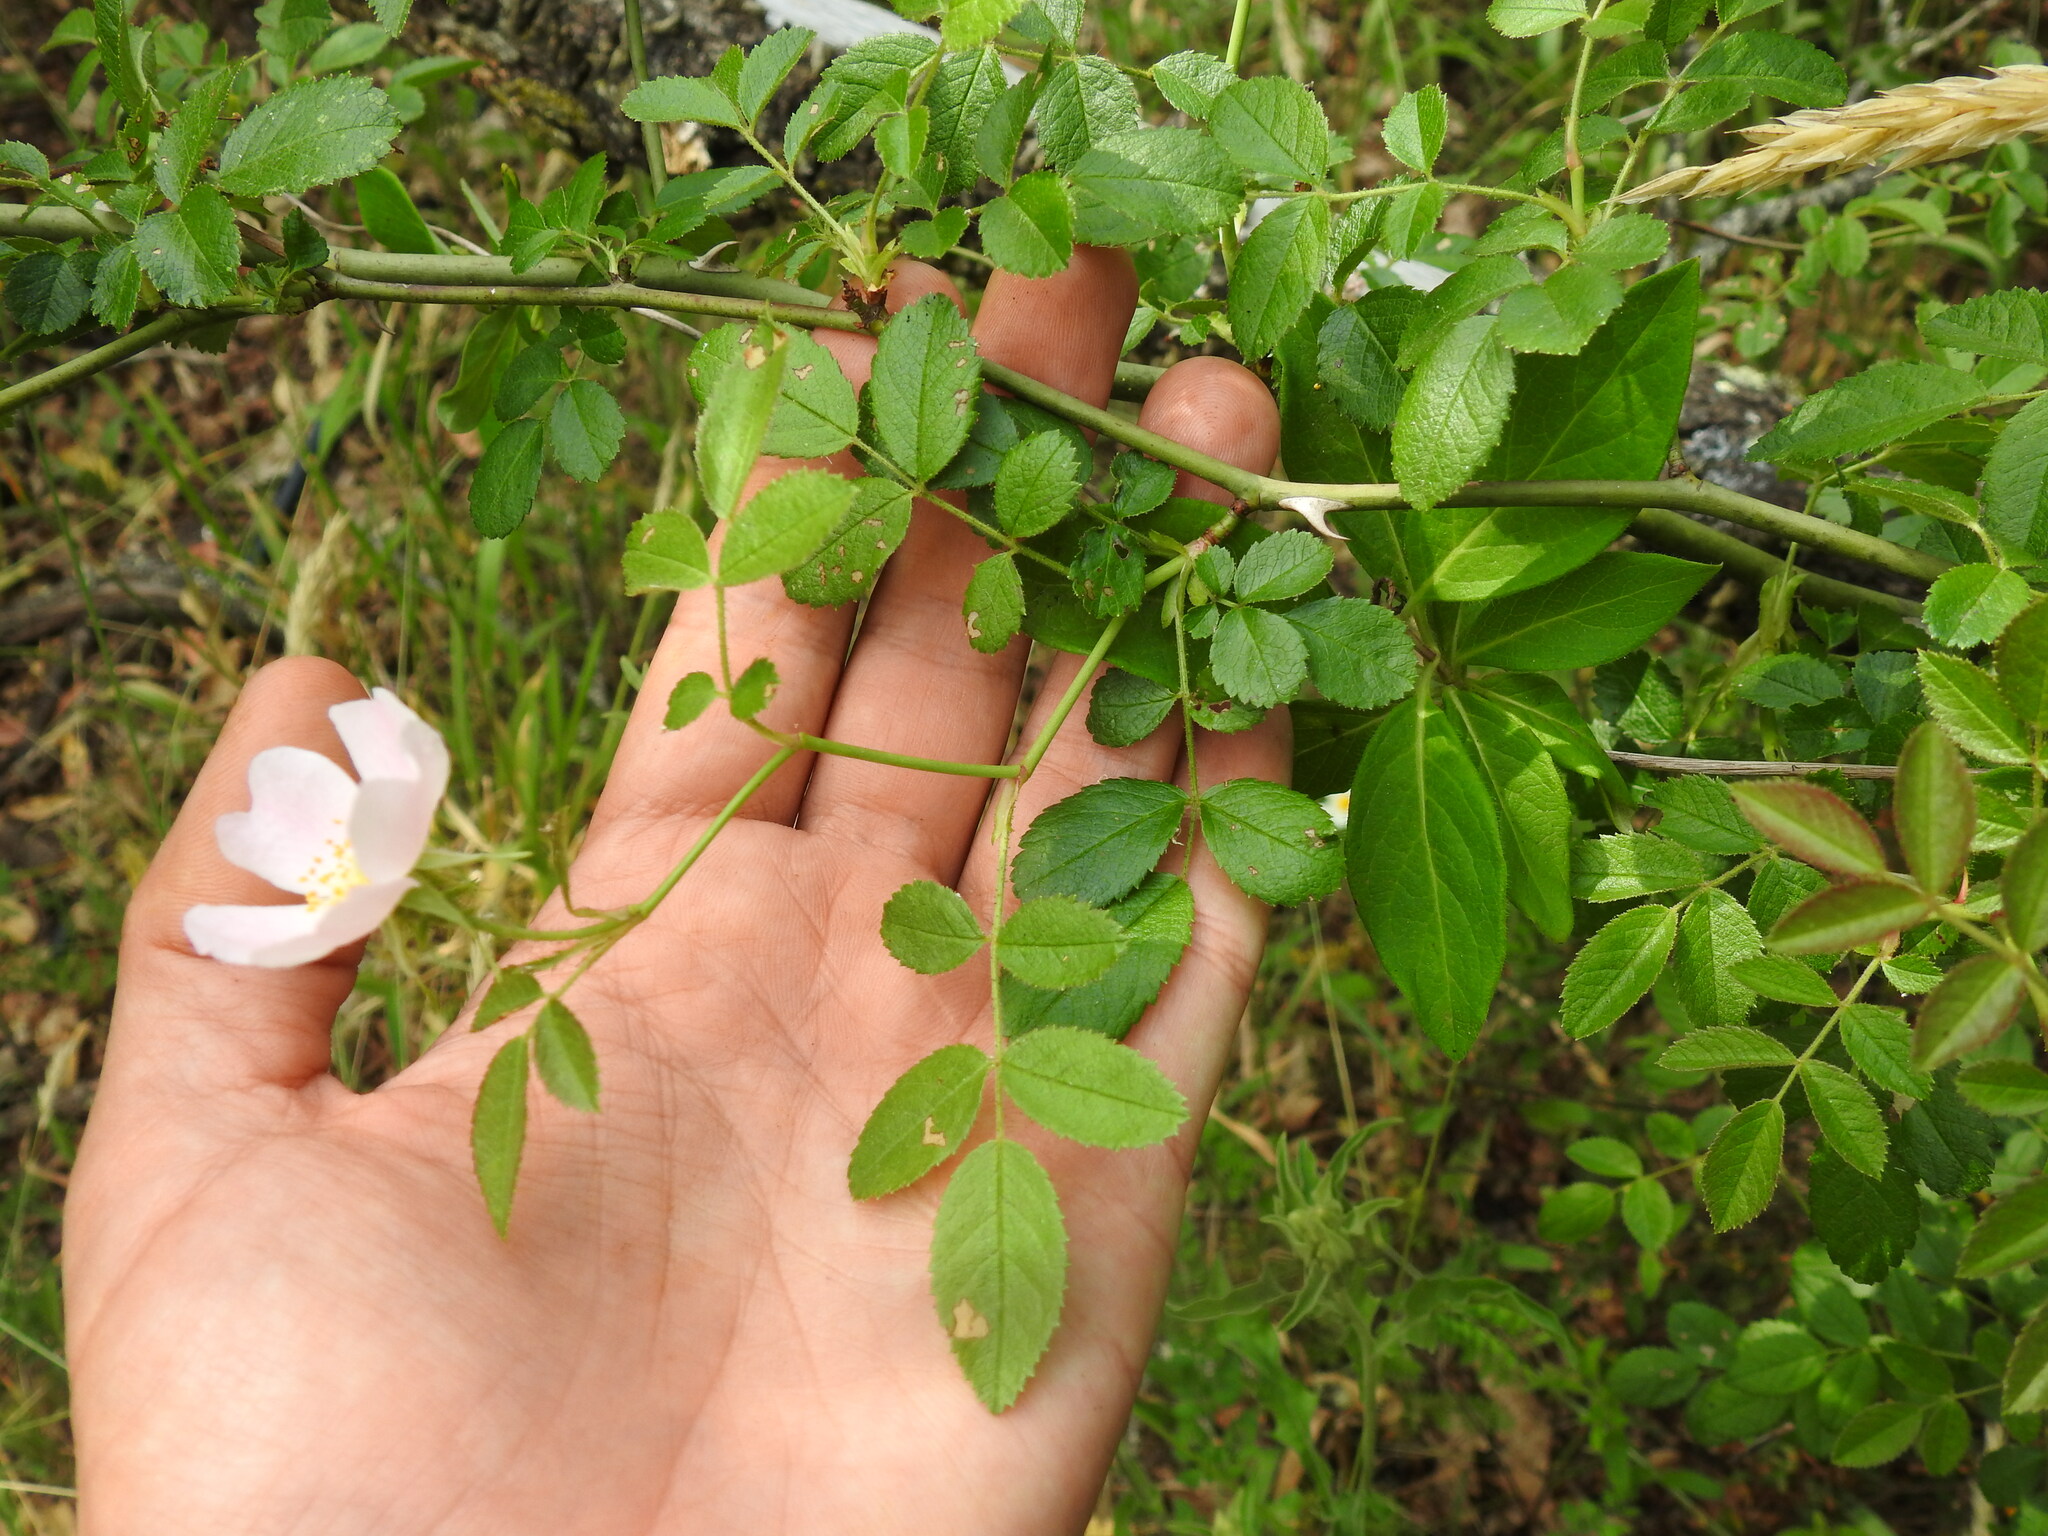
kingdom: Plantae
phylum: Tracheophyta
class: Magnoliopsida
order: Rosales
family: Rosaceae
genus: Rosa
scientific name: Rosa micrantha
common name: Small-flowered sweet-briar
